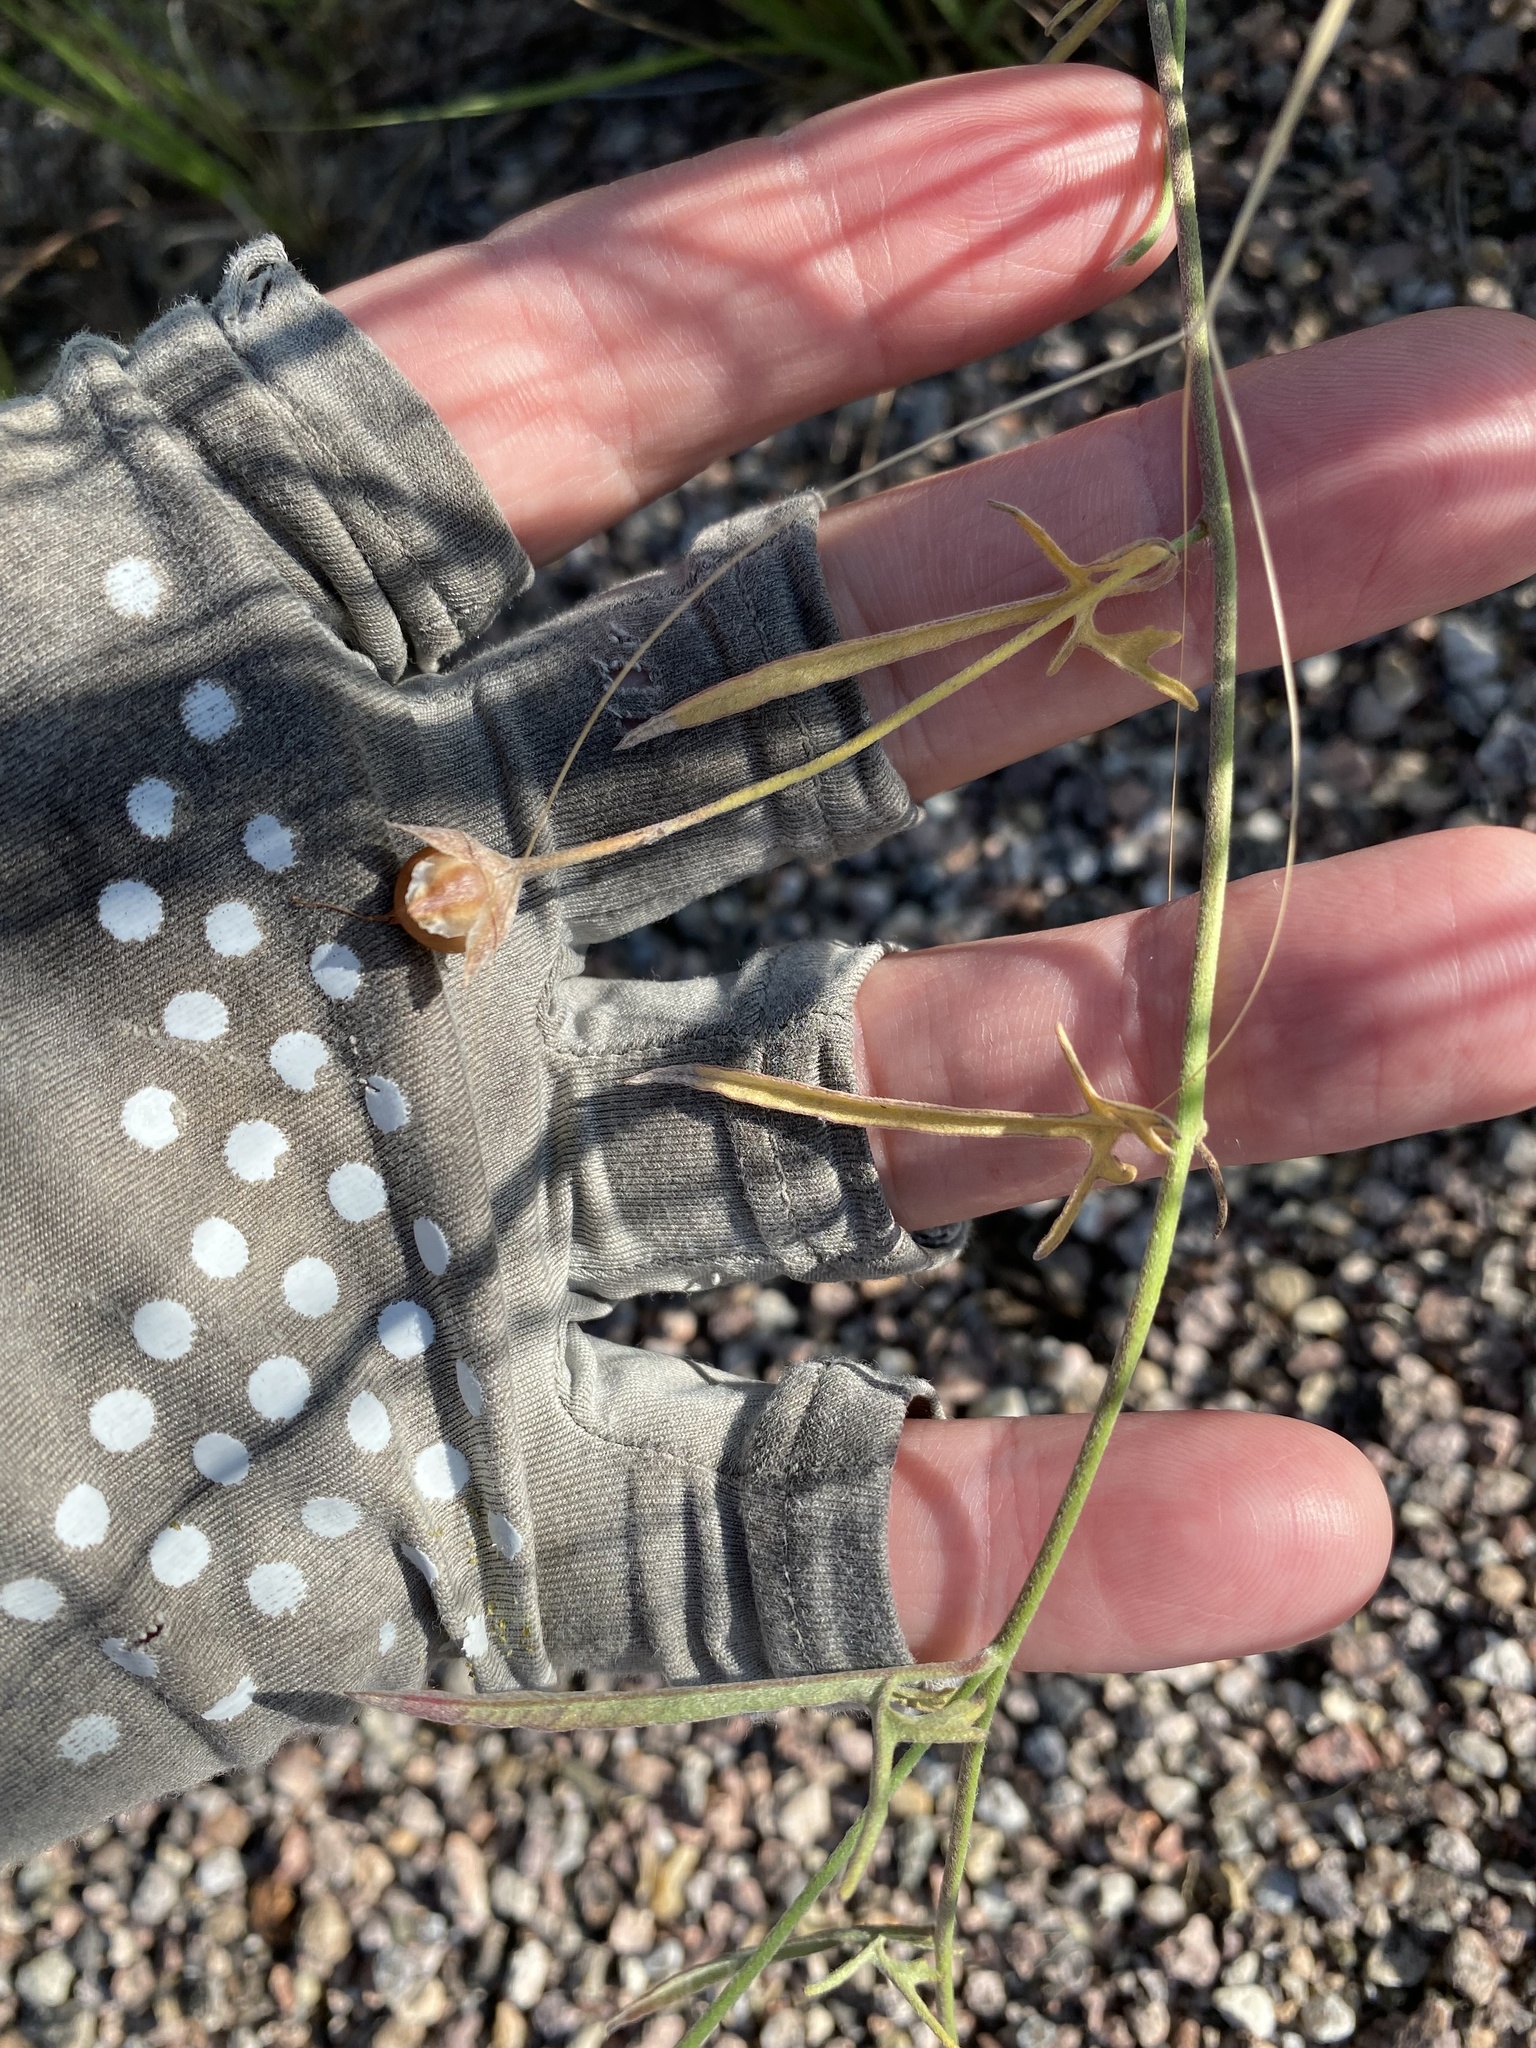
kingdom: Plantae
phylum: Tracheophyta
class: Magnoliopsida
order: Solanales
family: Convolvulaceae
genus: Convolvulus
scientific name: Convolvulus equitans
